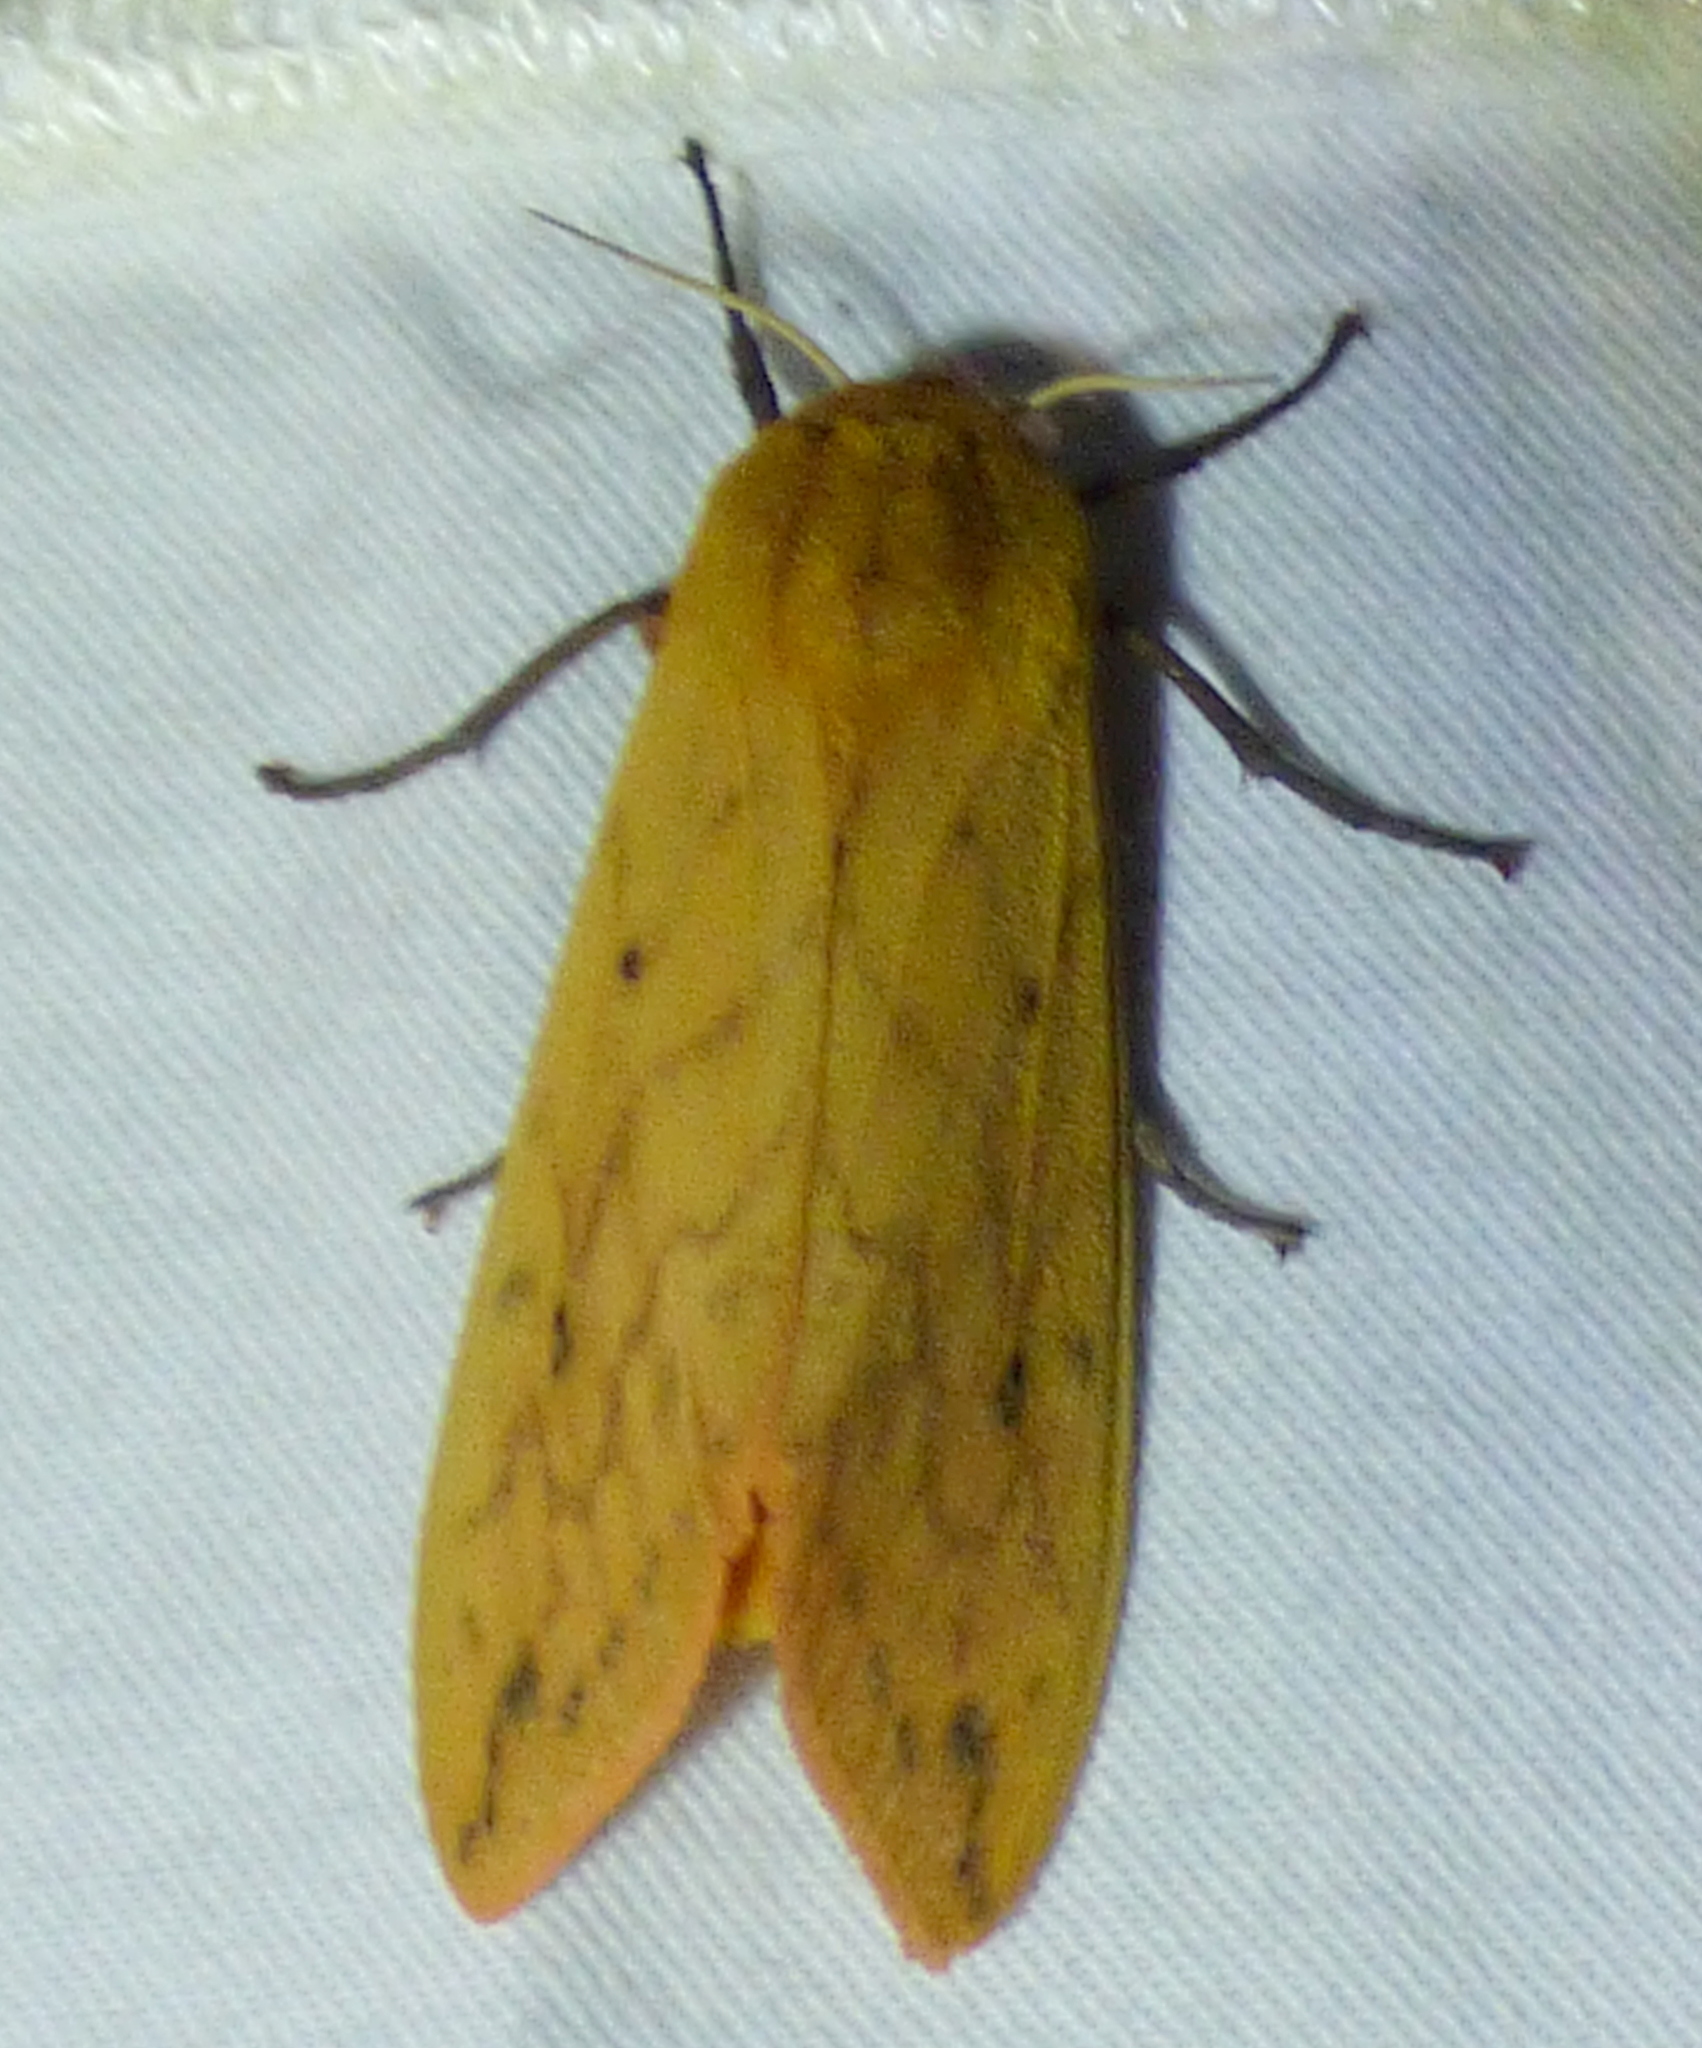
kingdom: Animalia
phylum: Arthropoda
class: Insecta
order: Lepidoptera
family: Erebidae
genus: Pyrrharctia
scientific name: Pyrrharctia isabella
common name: Isabella tiger moth
